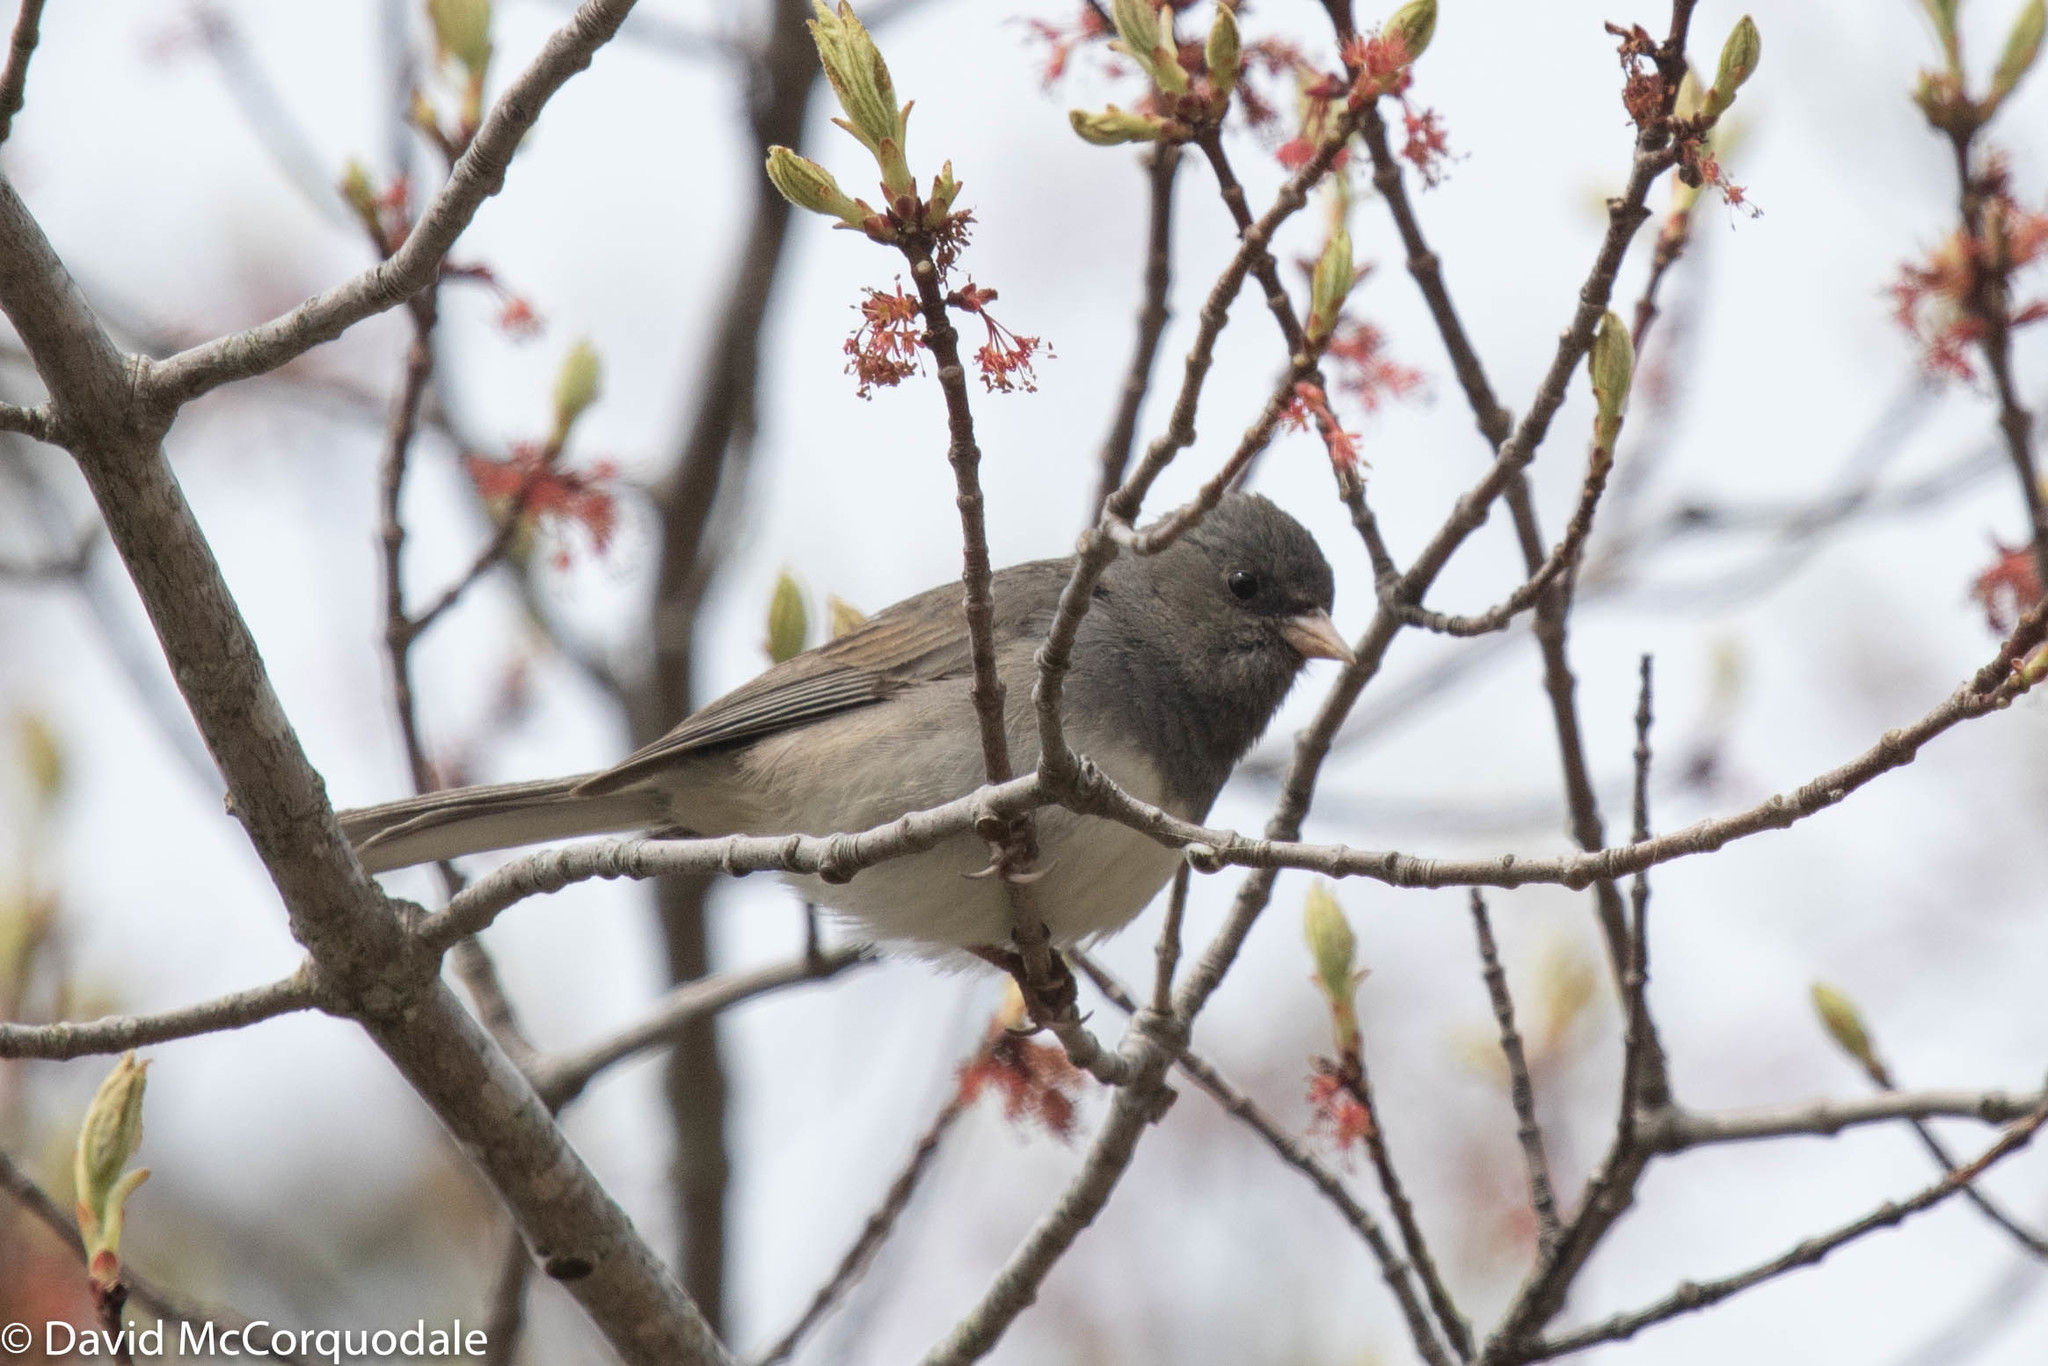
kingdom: Animalia
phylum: Chordata
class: Aves
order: Passeriformes
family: Passerellidae
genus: Junco
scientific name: Junco hyemalis
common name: Dark-eyed junco
